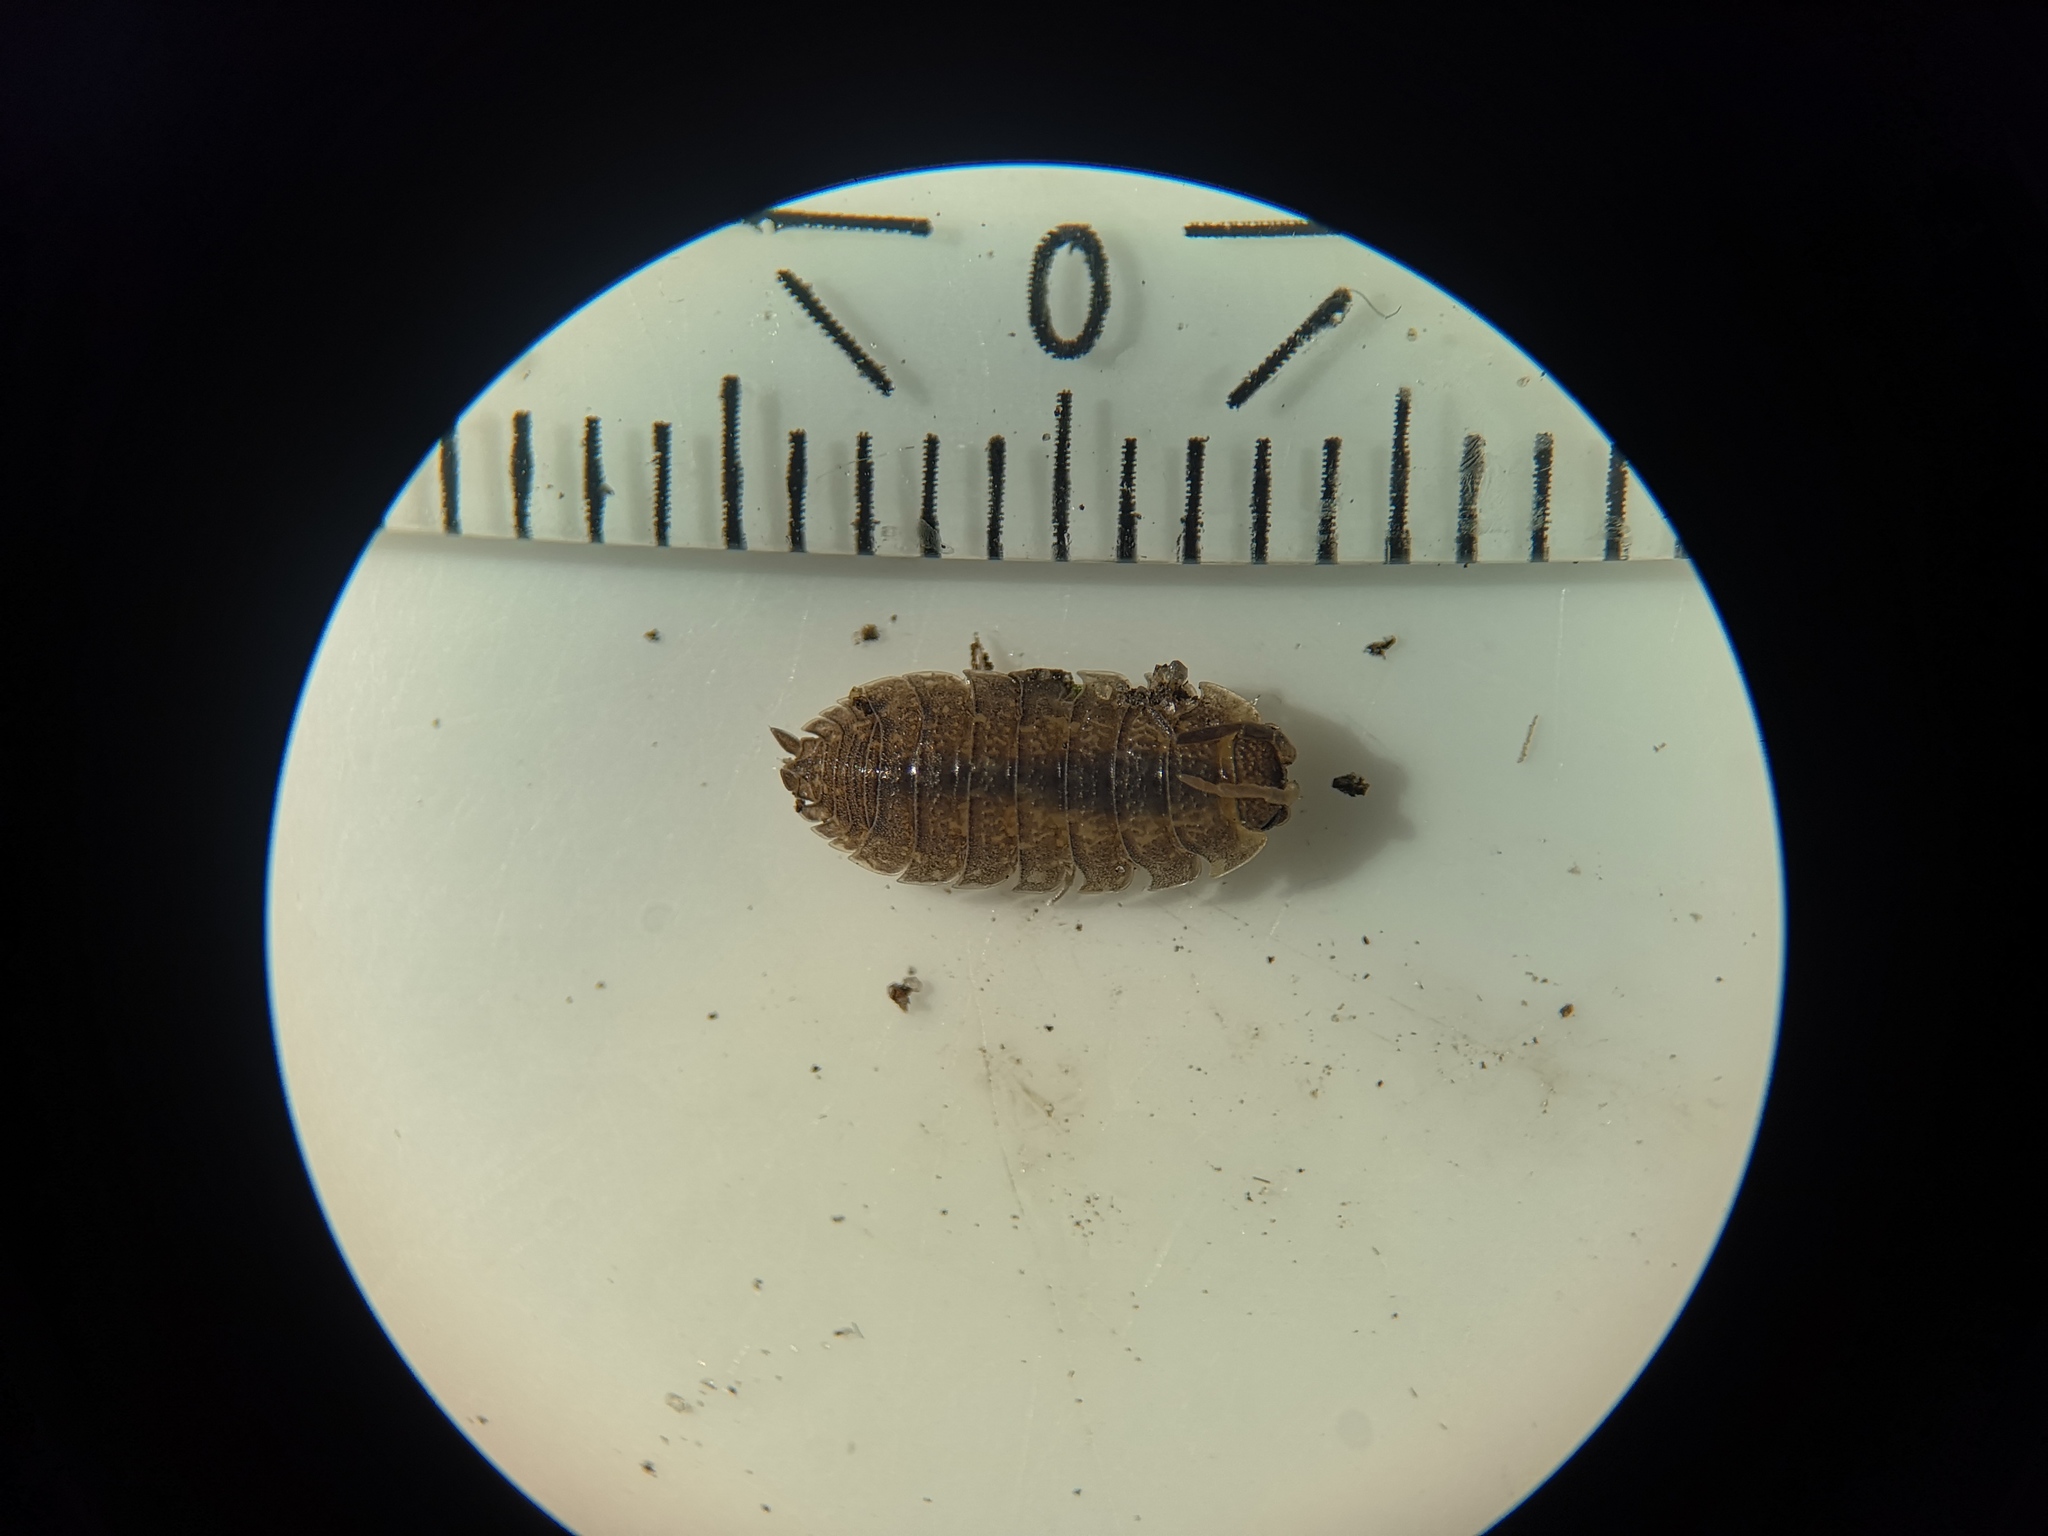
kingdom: Animalia
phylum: Arthropoda
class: Malacostraca
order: Isopoda
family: Porcellionidae
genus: Porcellio
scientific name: Porcellio scaber
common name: Common rough woodlouse
